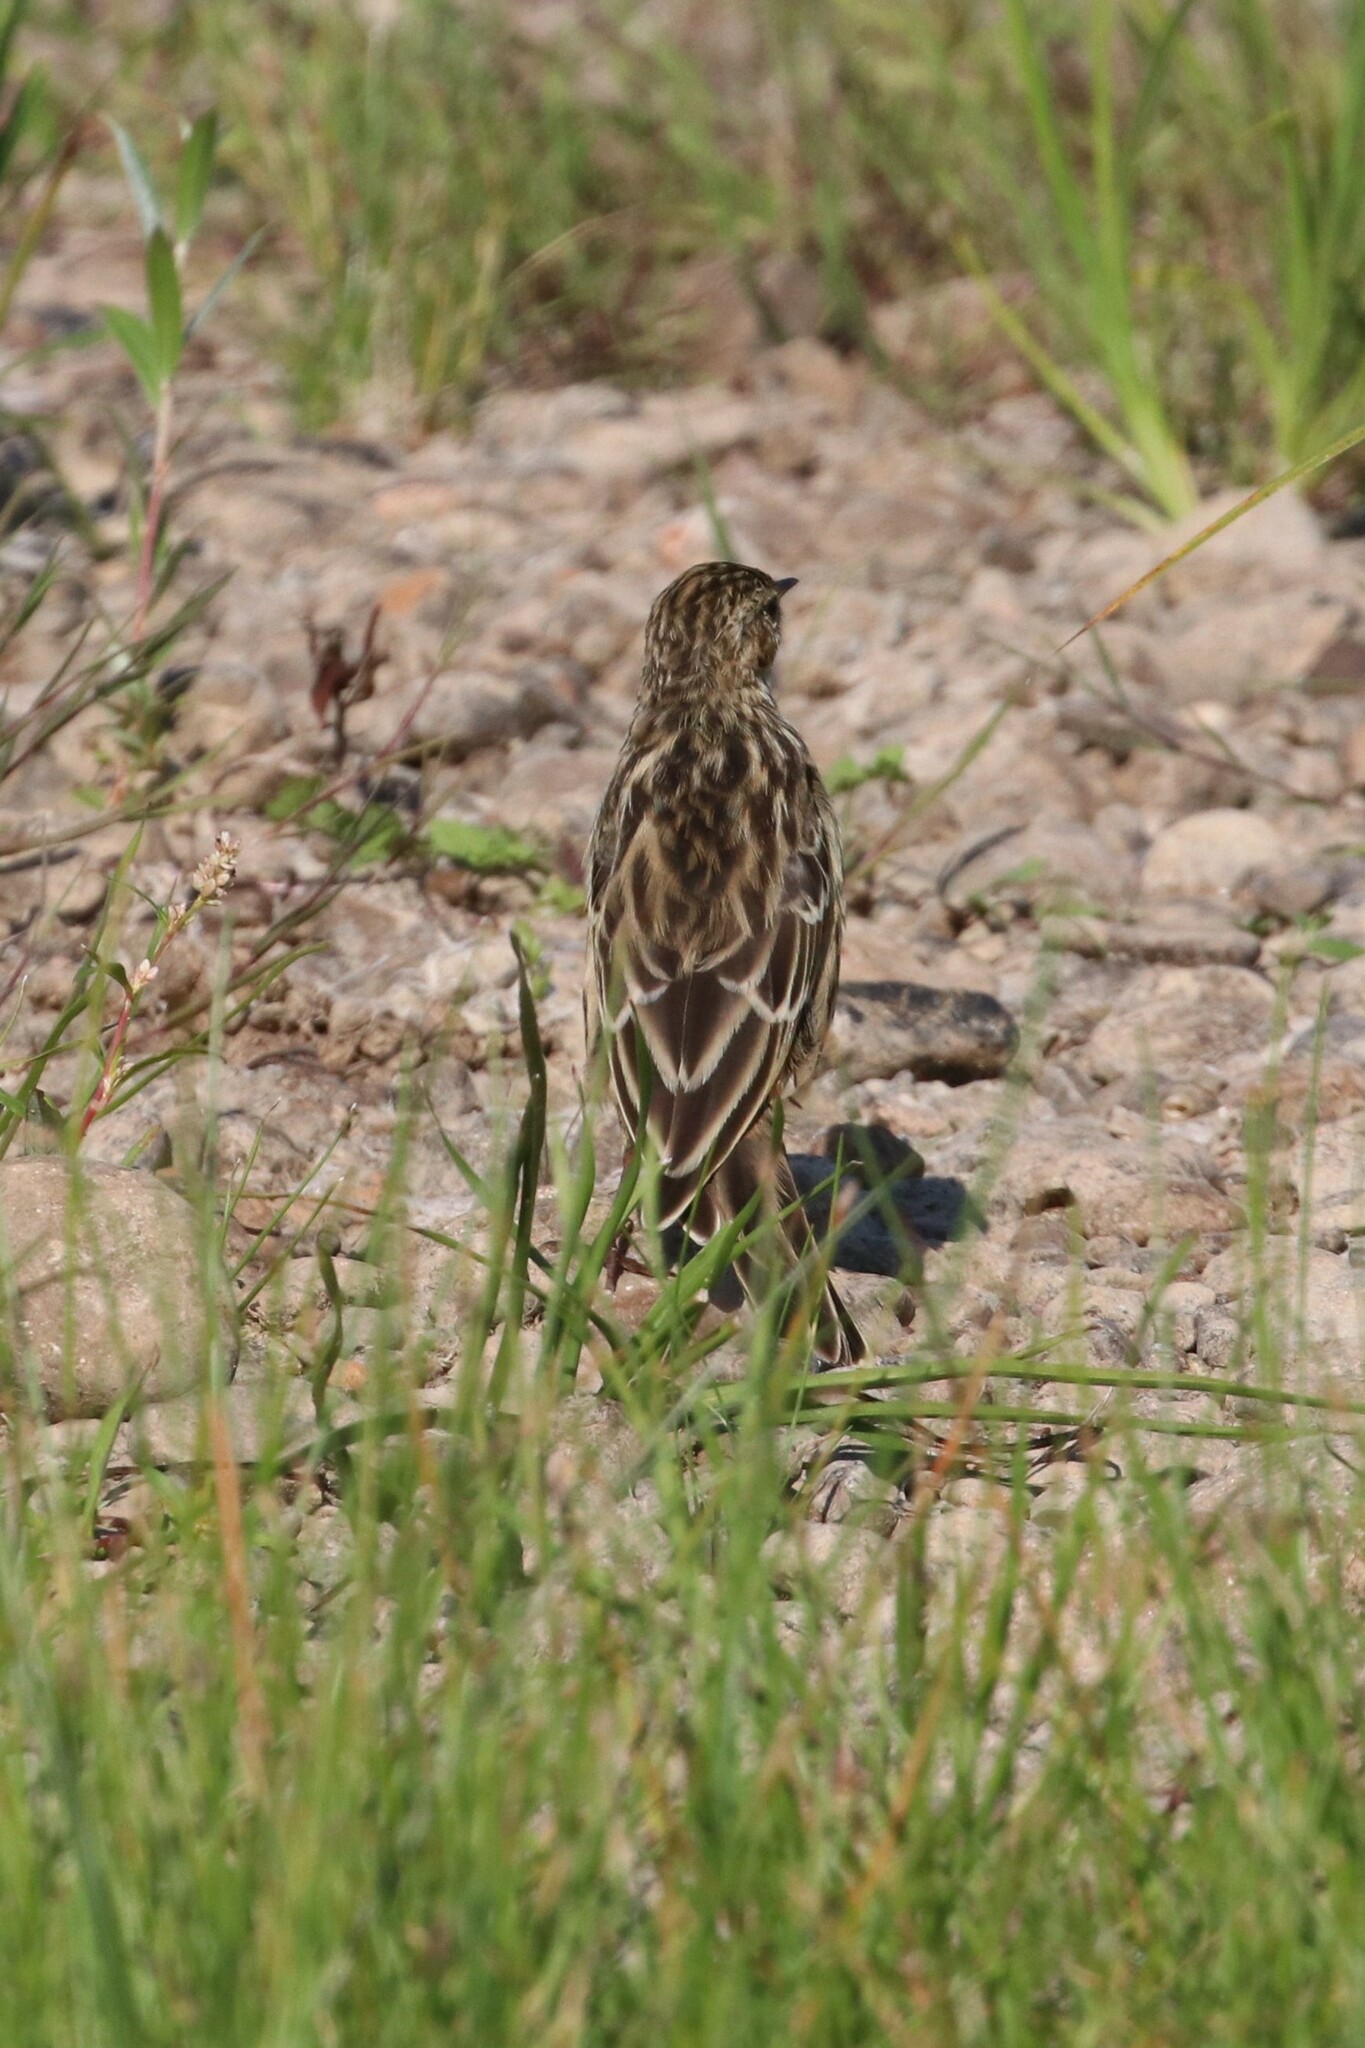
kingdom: Animalia
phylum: Chordata
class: Aves
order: Passeriformes
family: Motacillidae
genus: Anthus
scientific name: Anthus cervinus
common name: Red-throated pipit
